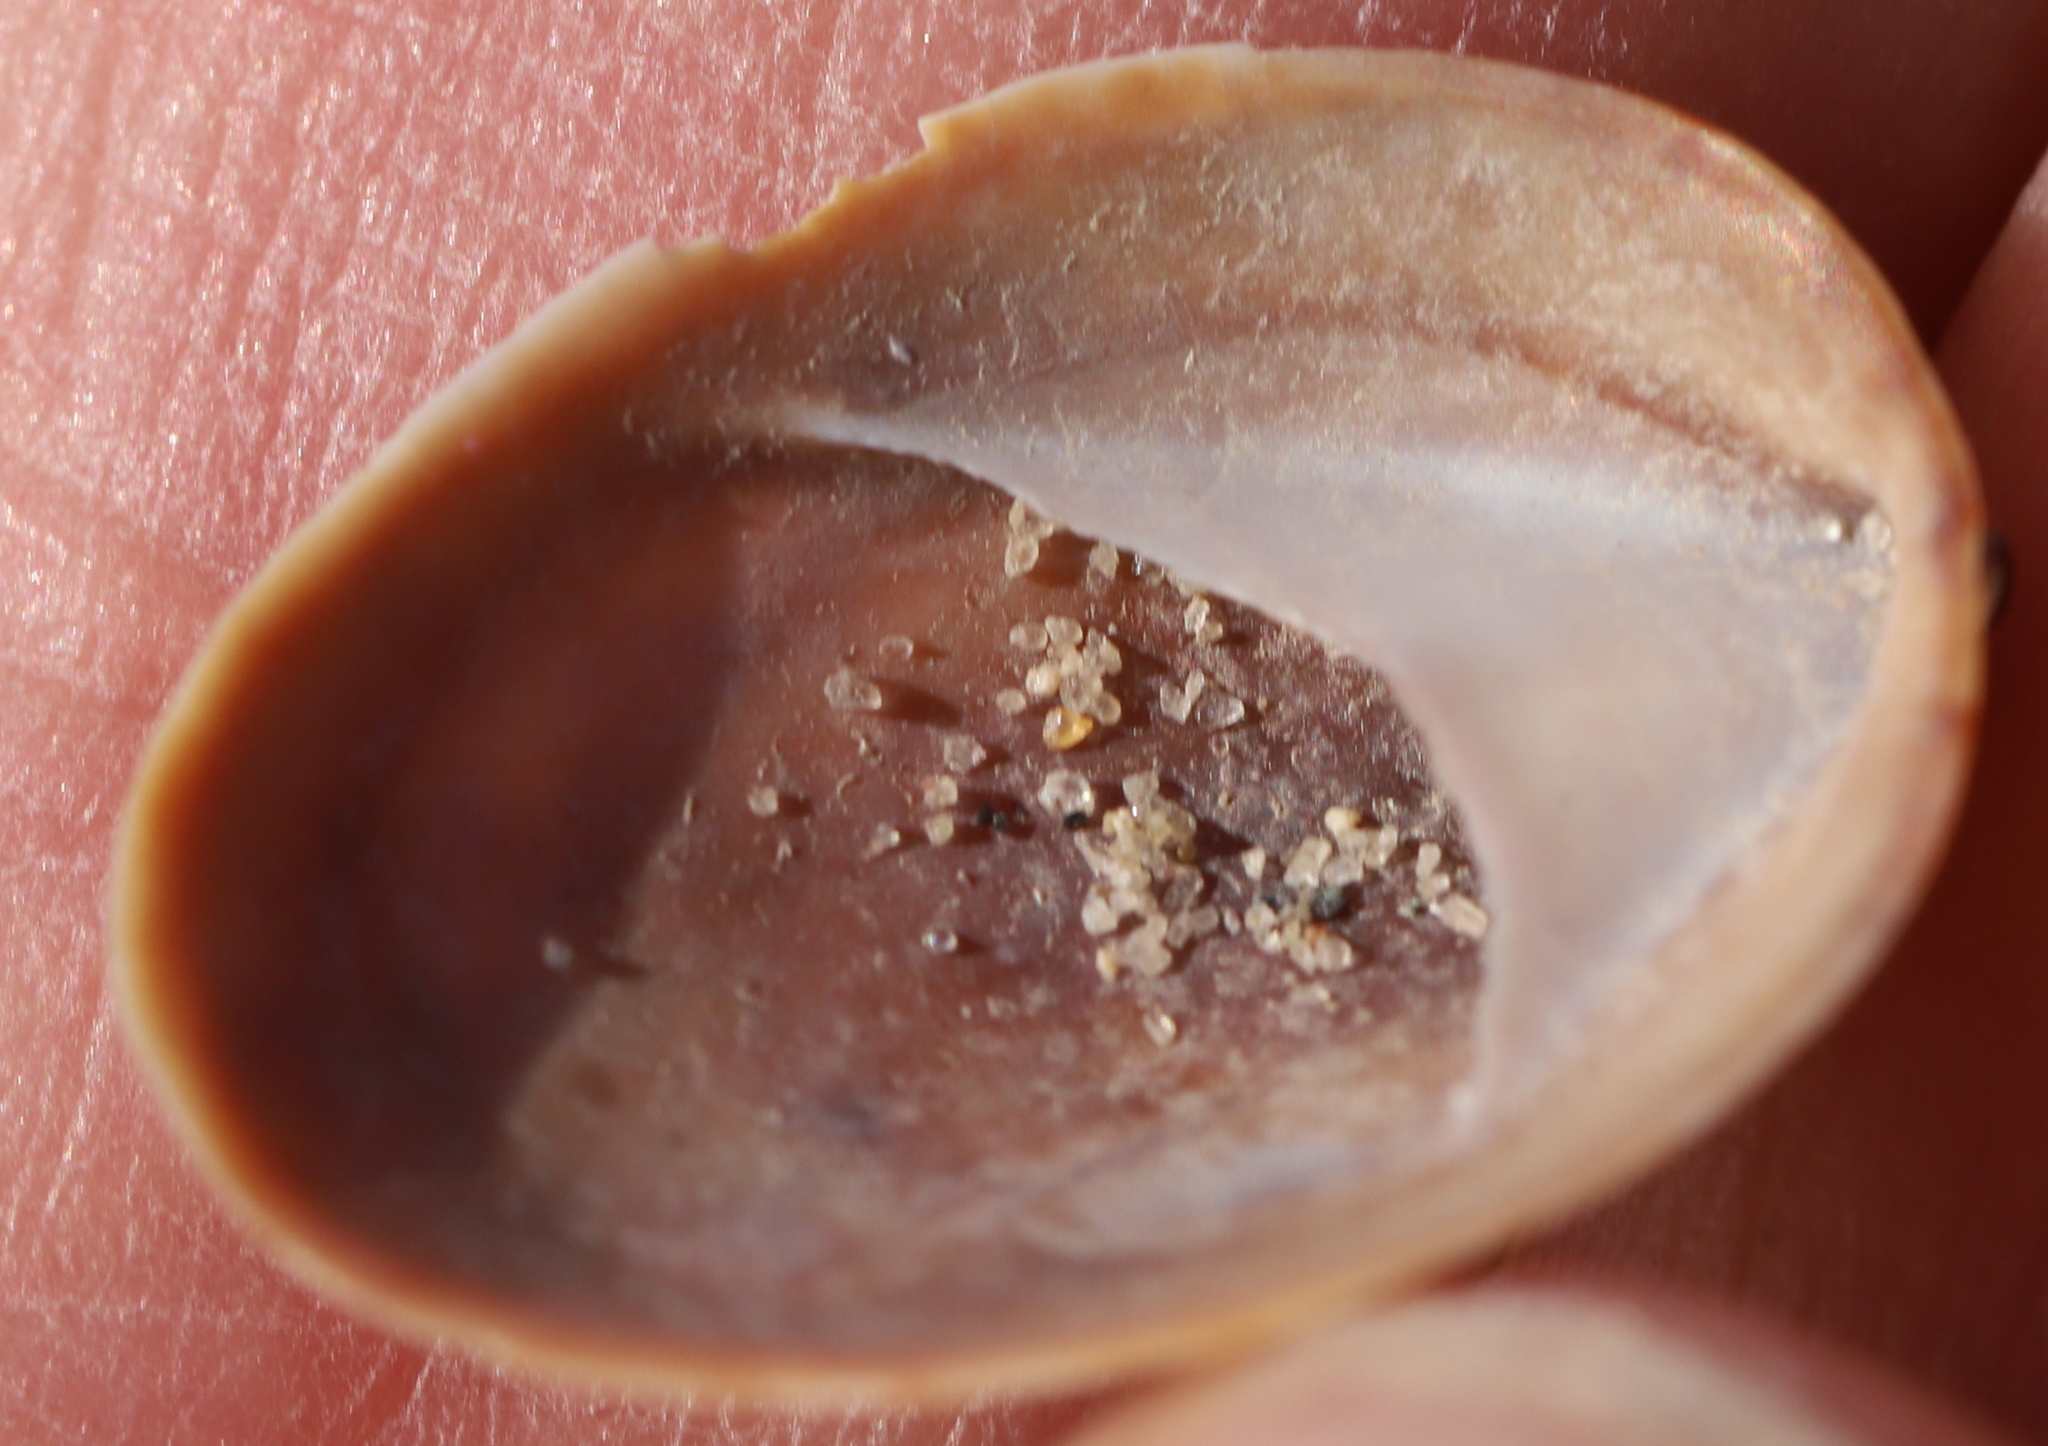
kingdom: Animalia
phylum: Mollusca
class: Gastropoda
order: Littorinimorpha
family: Calyptraeidae
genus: Crepidula
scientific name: Crepidula convexa
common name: Convex slippersnail
